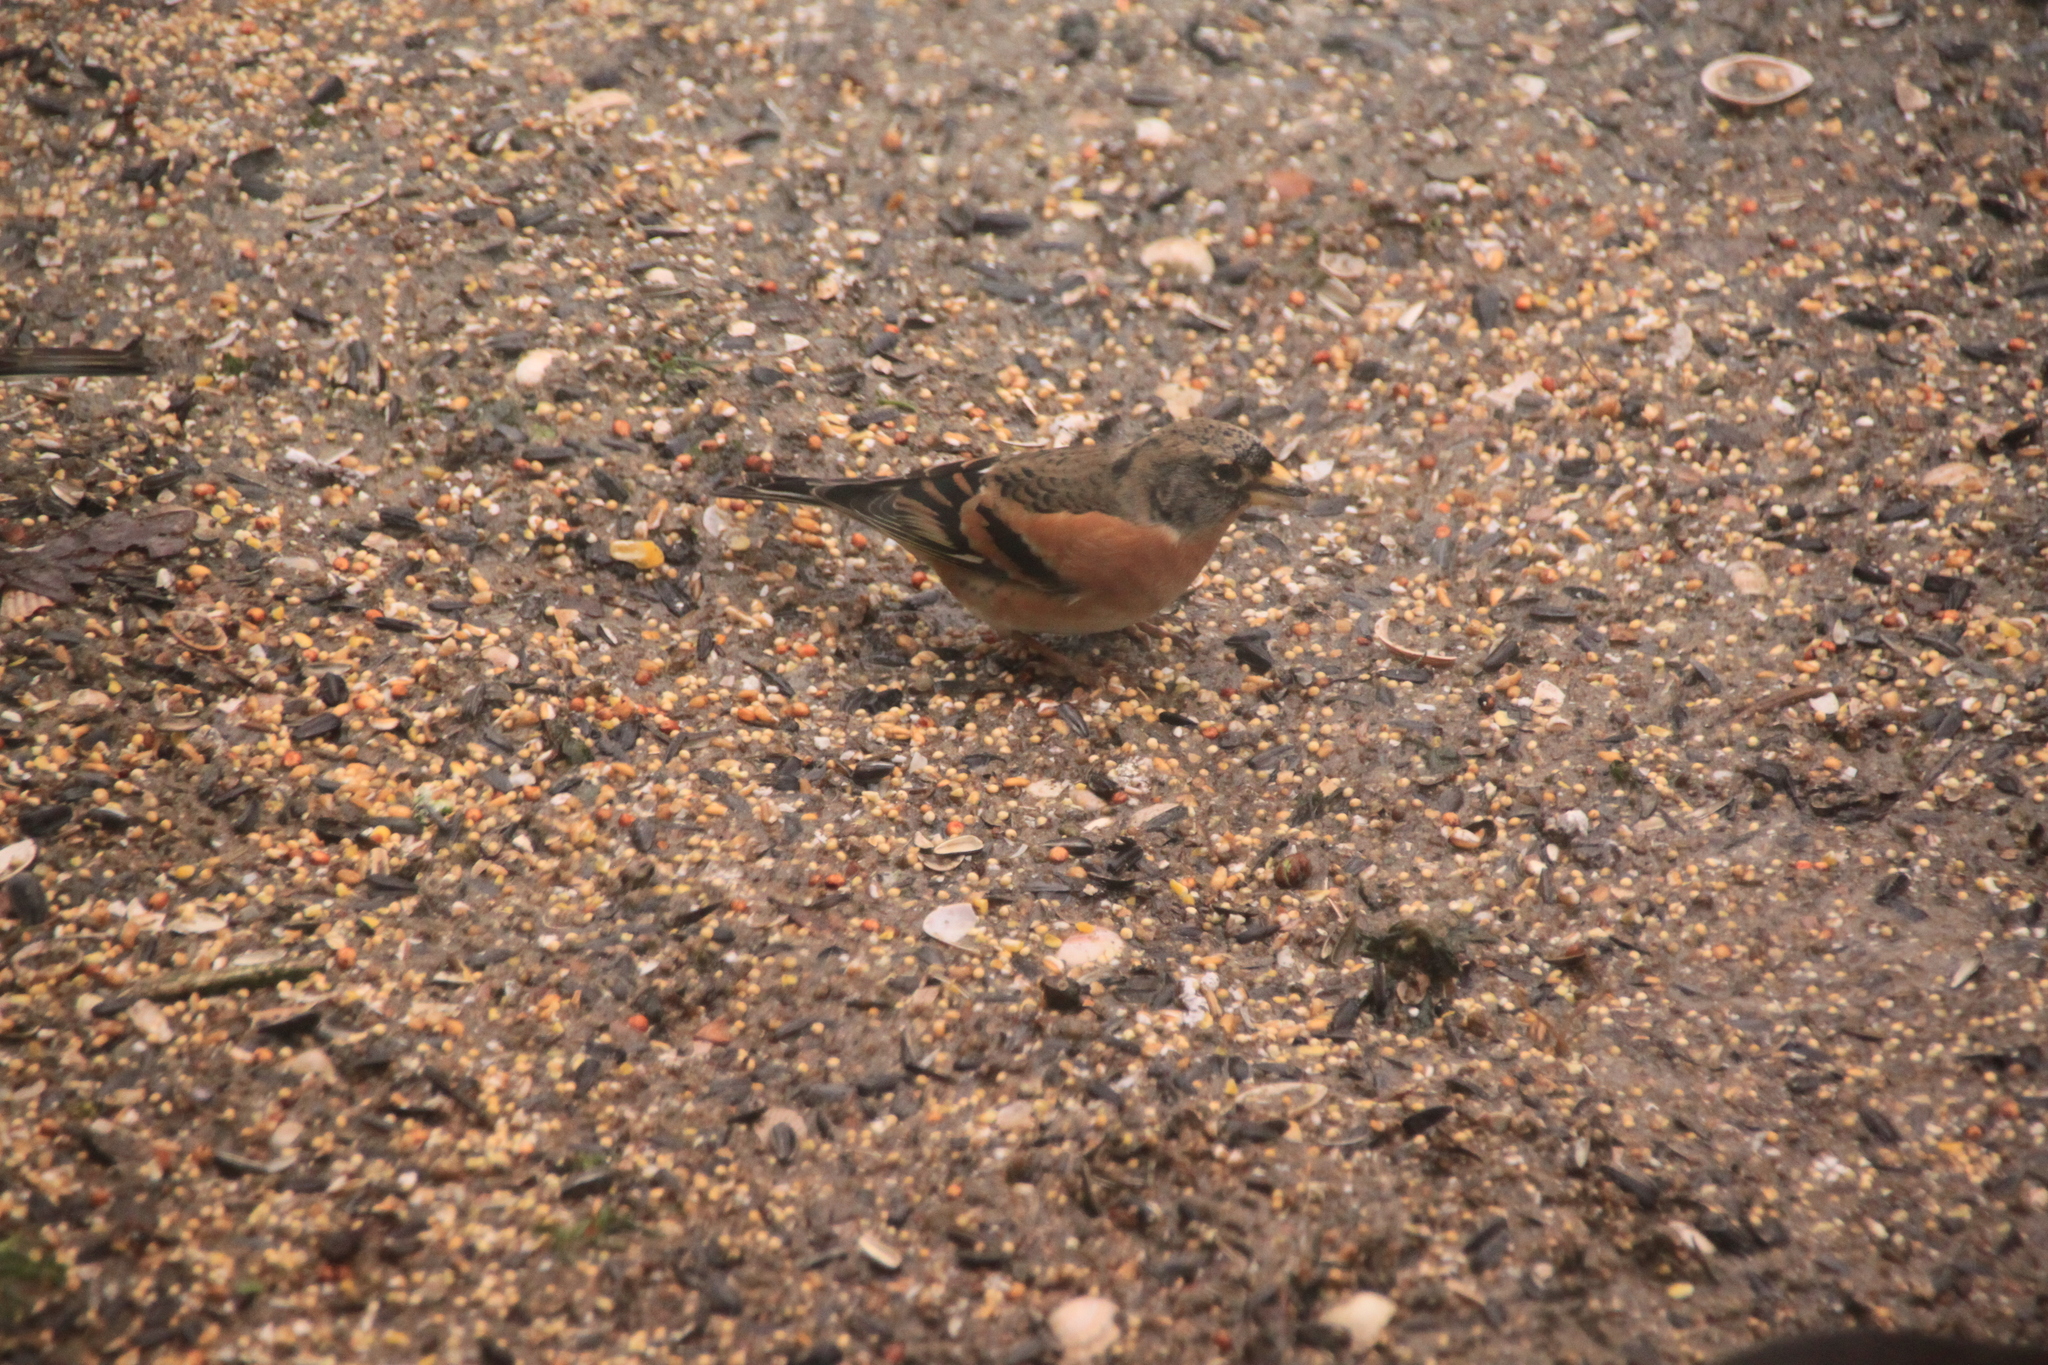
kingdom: Animalia
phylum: Chordata
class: Aves
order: Passeriformes
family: Fringillidae
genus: Fringilla
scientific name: Fringilla montifringilla
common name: Brambling
